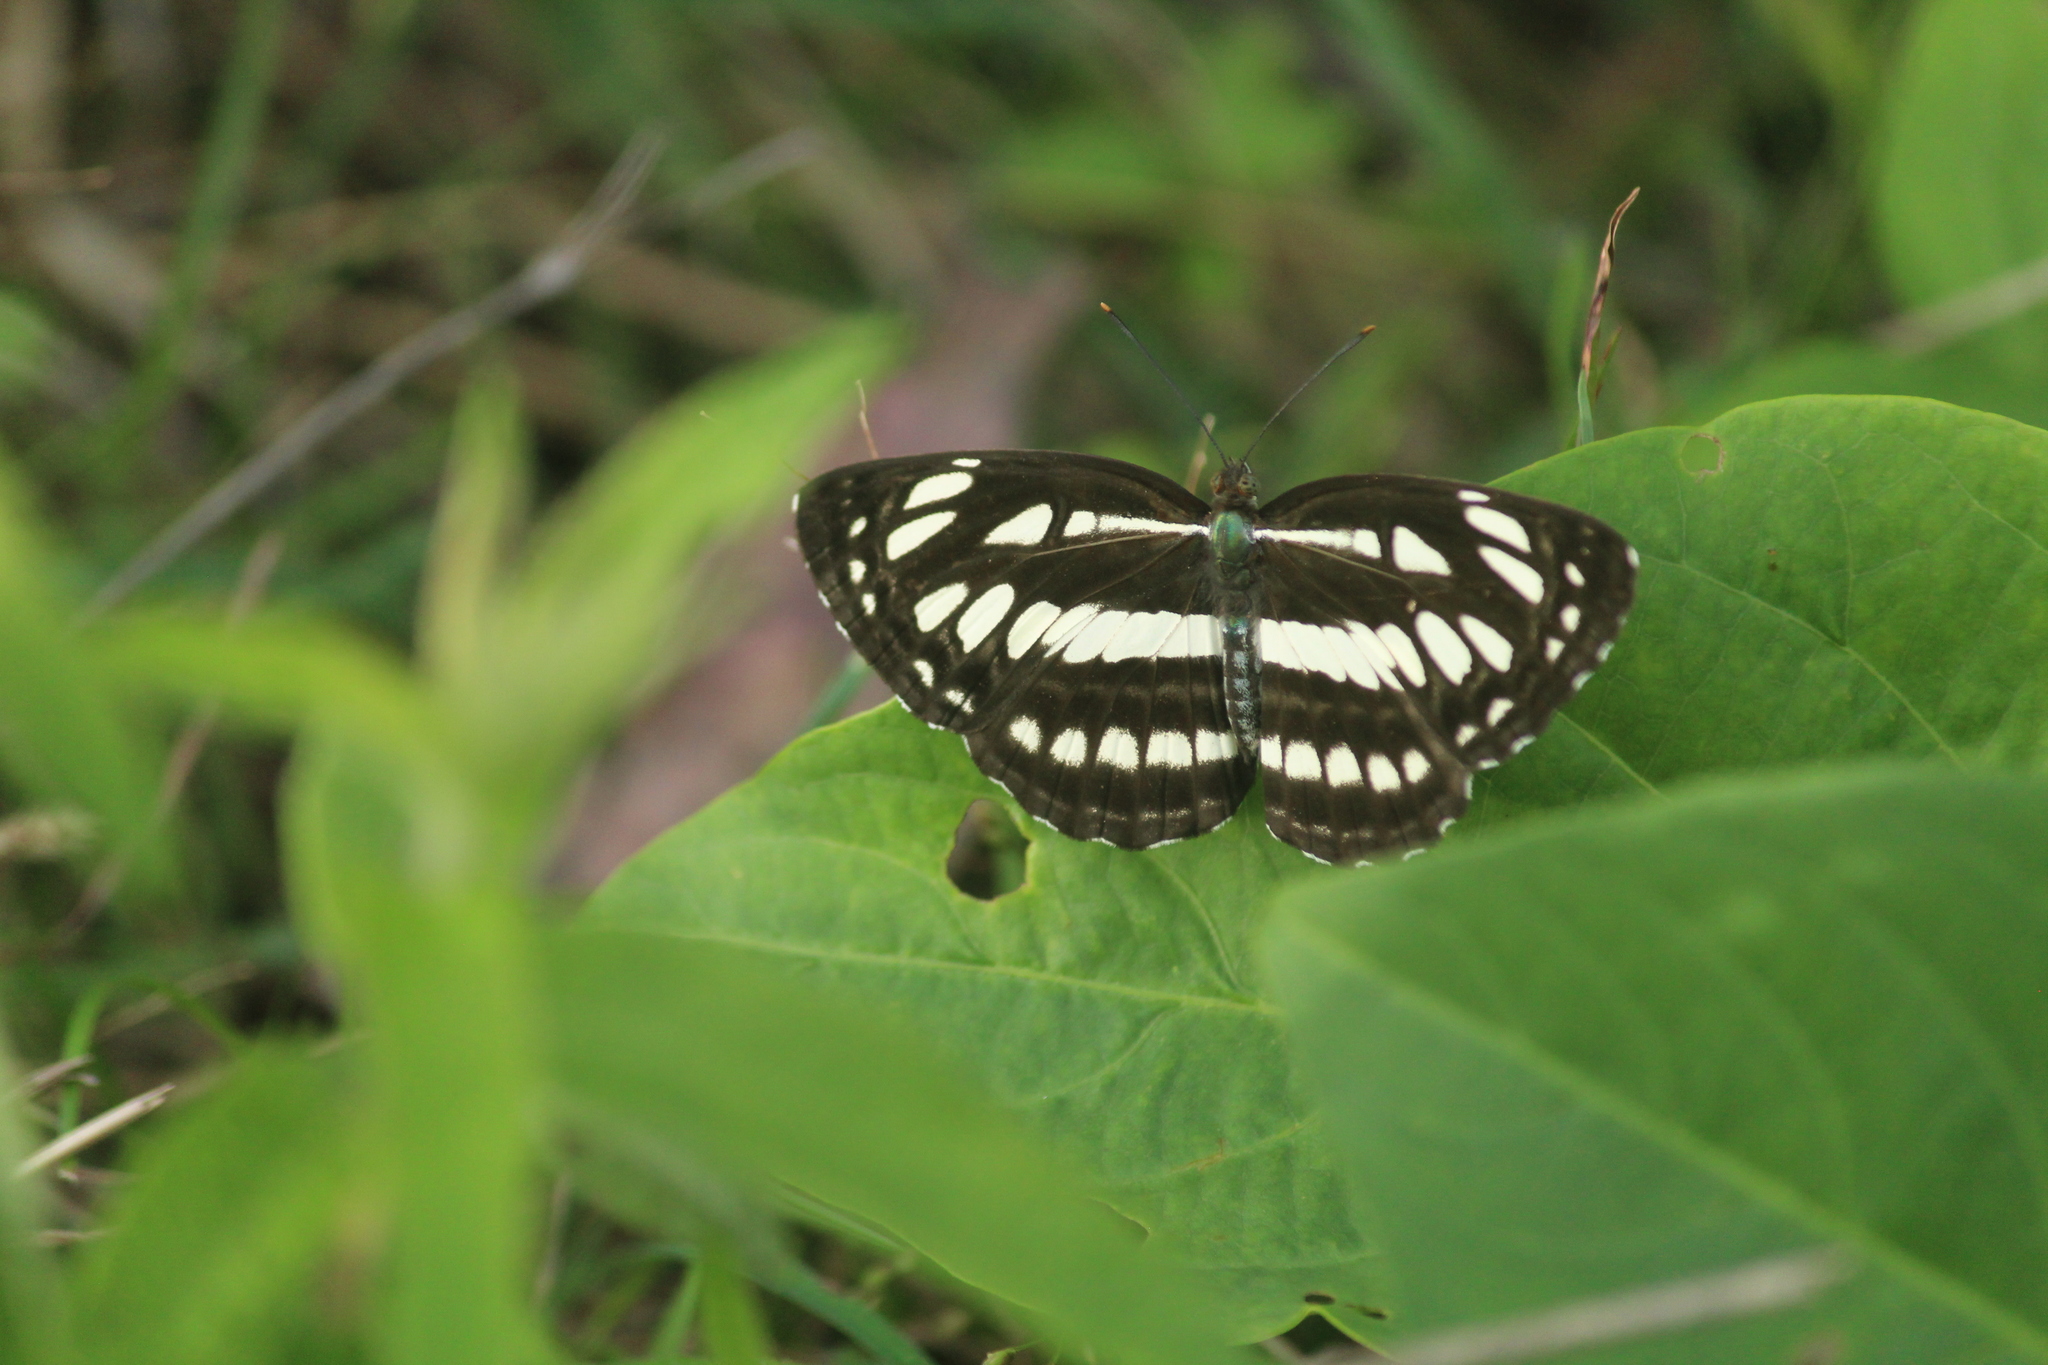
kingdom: Animalia
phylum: Arthropoda
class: Insecta
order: Lepidoptera
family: Nymphalidae
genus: Neptis
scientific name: Neptis hylas
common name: Common sailer
